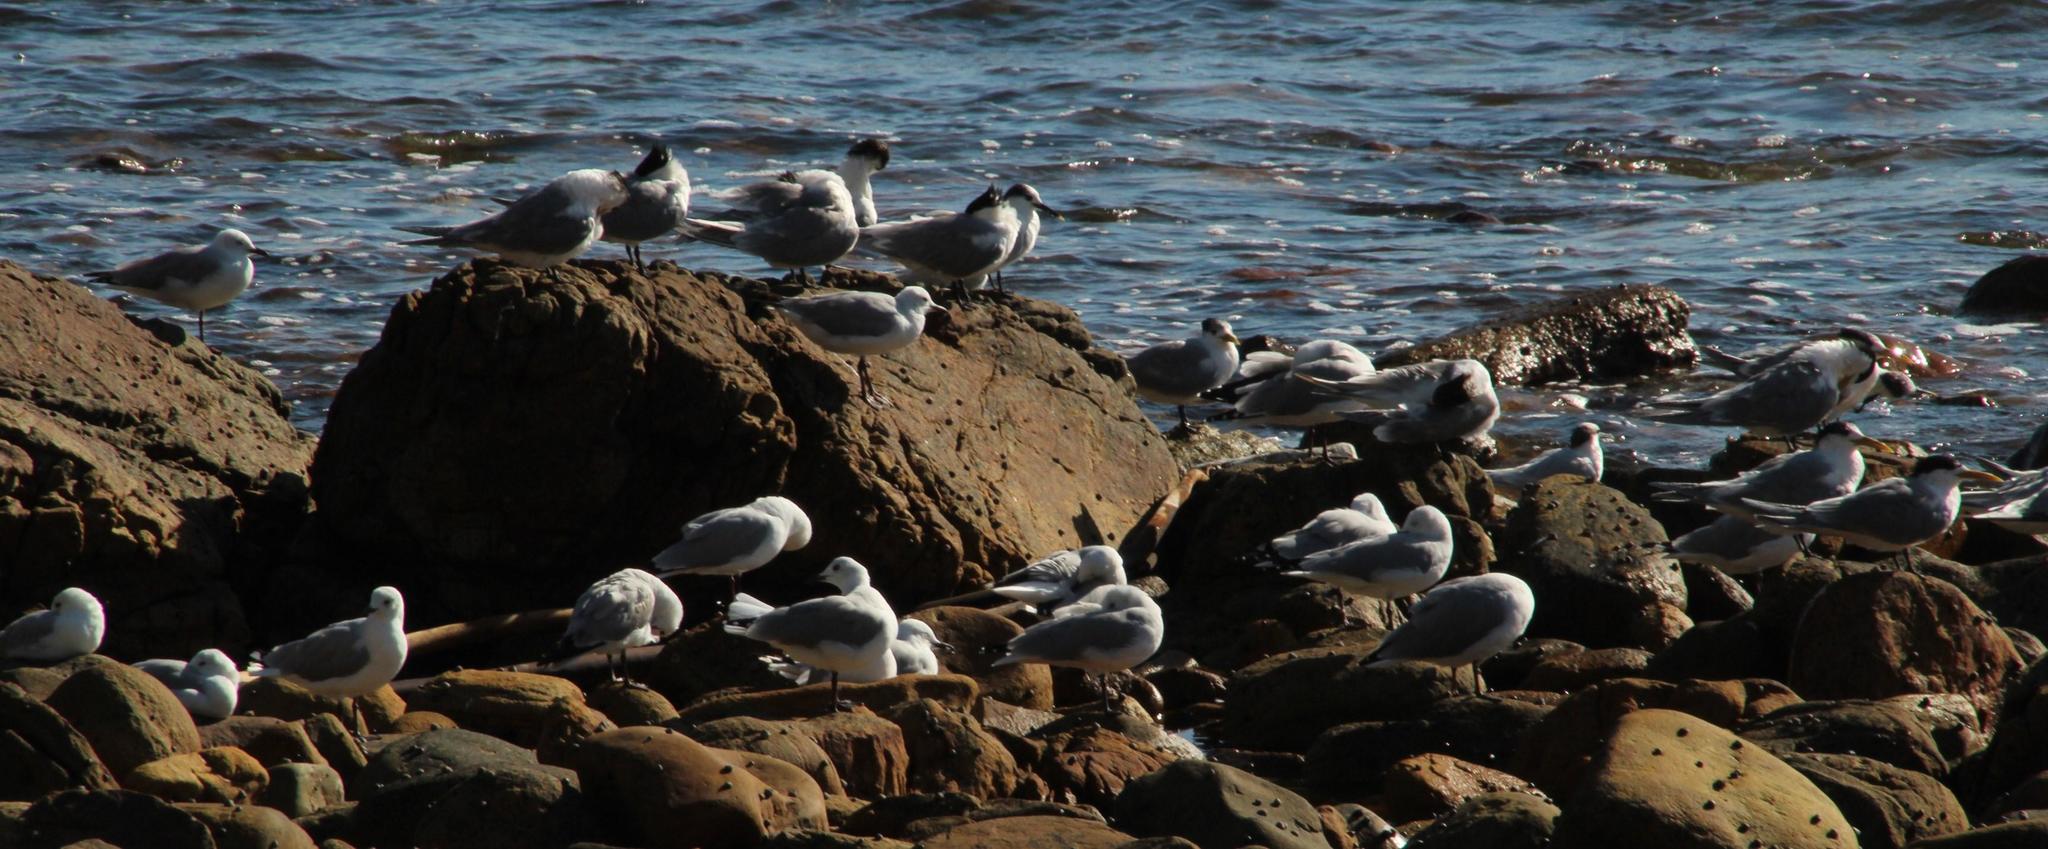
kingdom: Animalia
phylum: Chordata
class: Aves
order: Charadriiformes
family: Laridae
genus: Chroicocephalus
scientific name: Chroicocephalus hartlaubii
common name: Hartlaub's gull
